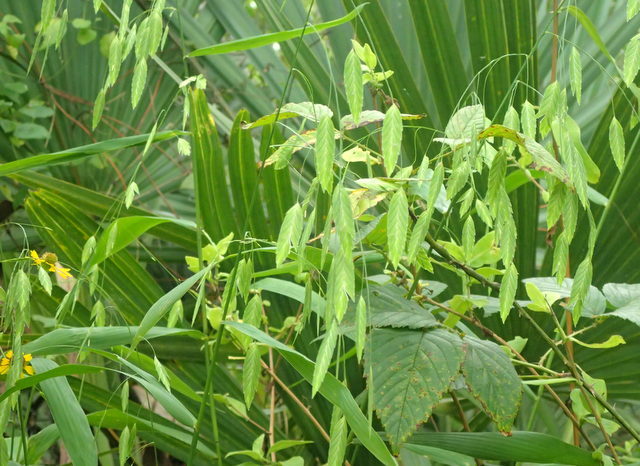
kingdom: Plantae
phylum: Tracheophyta
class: Liliopsida
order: Poales
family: Poaceae
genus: Chasmanthium
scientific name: Chasmanthium latifolium
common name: Broad-leaved chasmanthium
